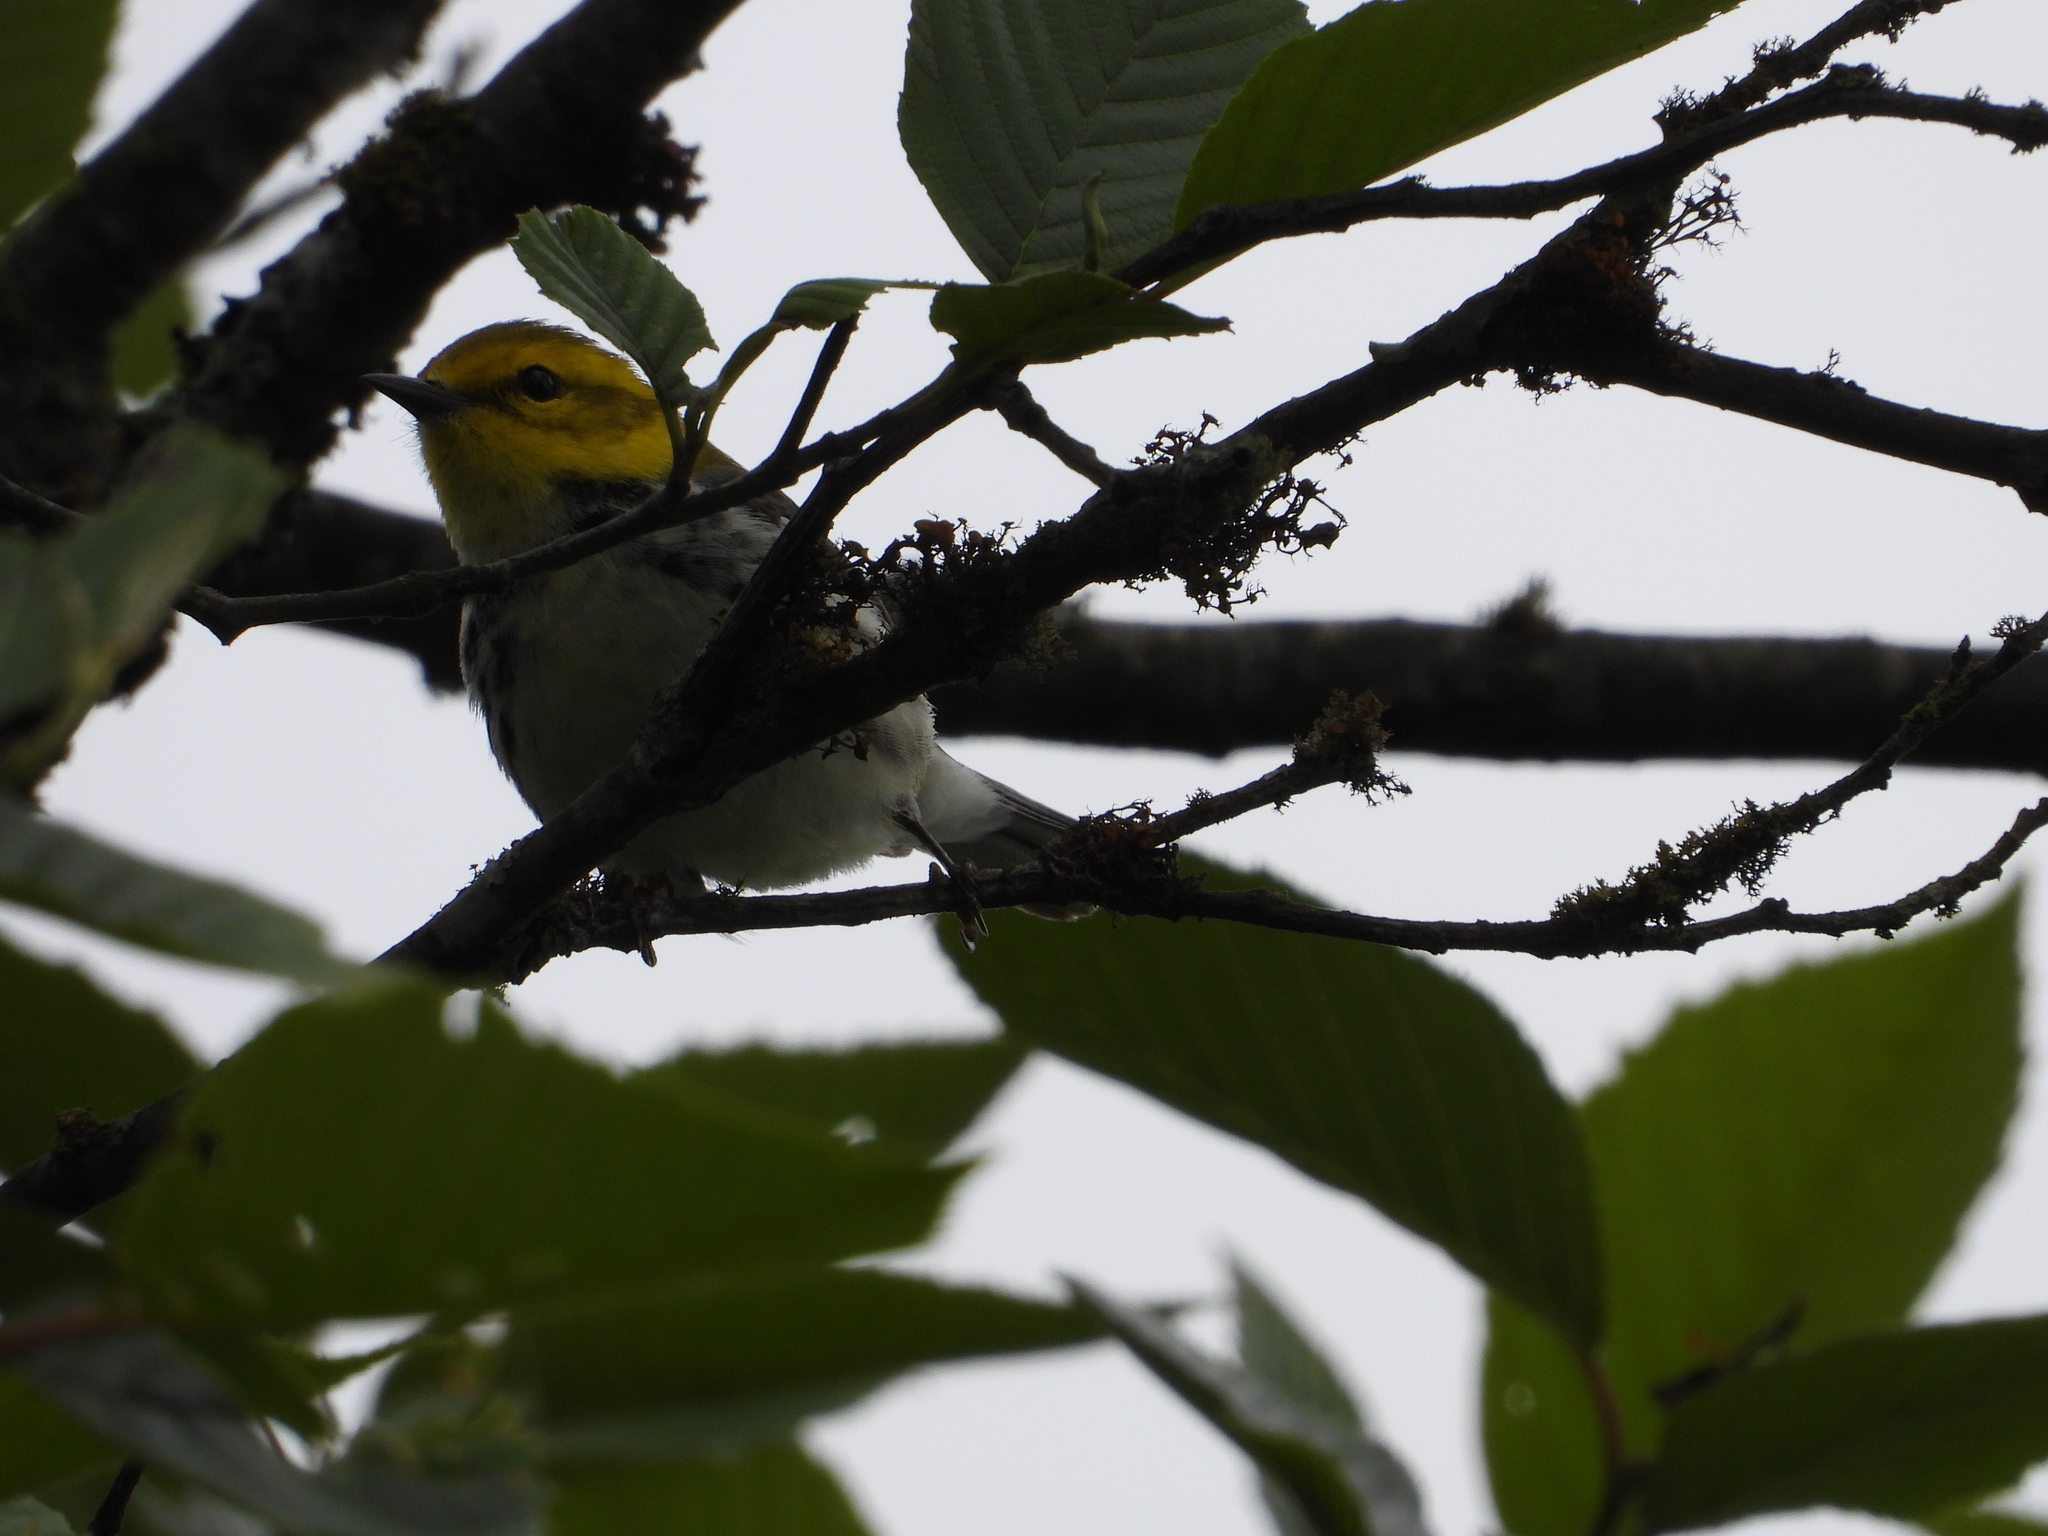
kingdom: Animalia
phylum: Chordata
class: Aves
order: Passeriformes
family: Parulidae
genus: Setophaga
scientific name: Setophaga virens
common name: Black-throated green warbler
